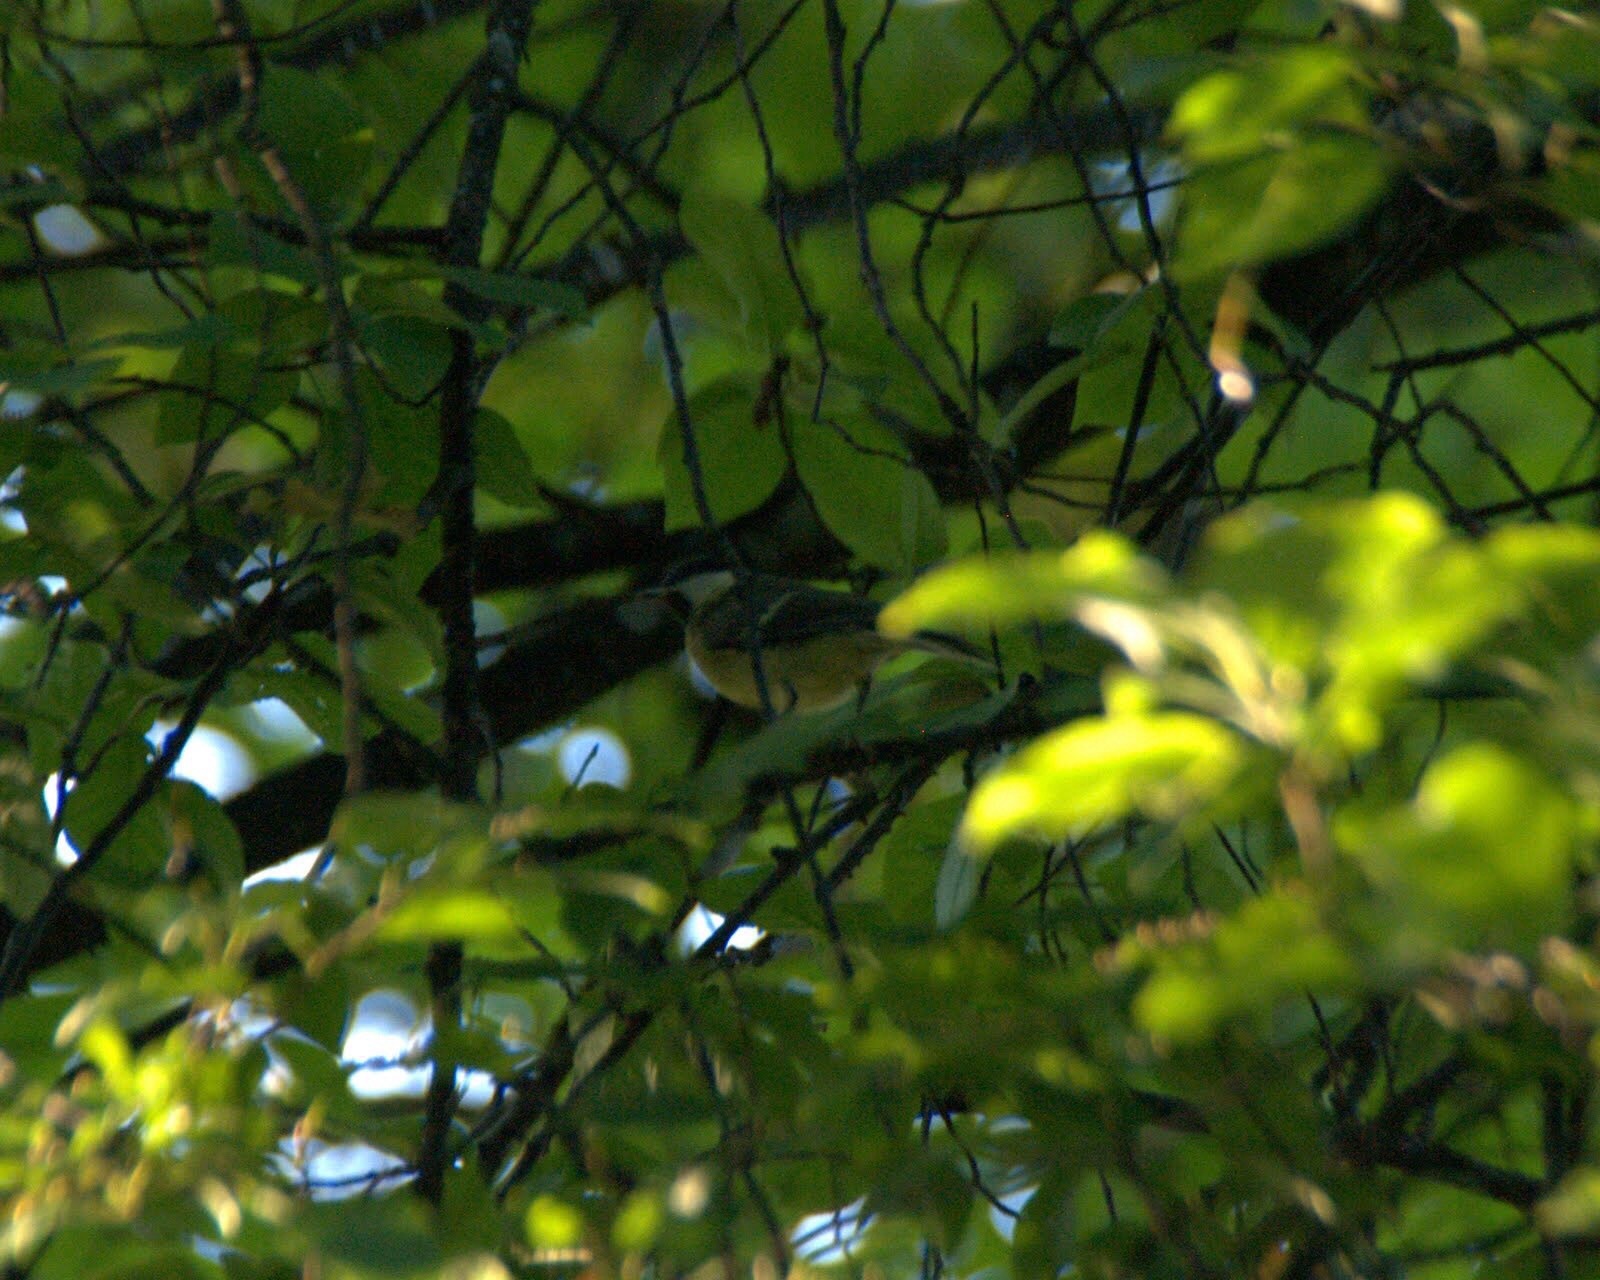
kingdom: Animalia
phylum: Chordata
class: Aves
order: Passeriformes
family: Paridae
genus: Parus
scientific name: Parus major
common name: Great tit
